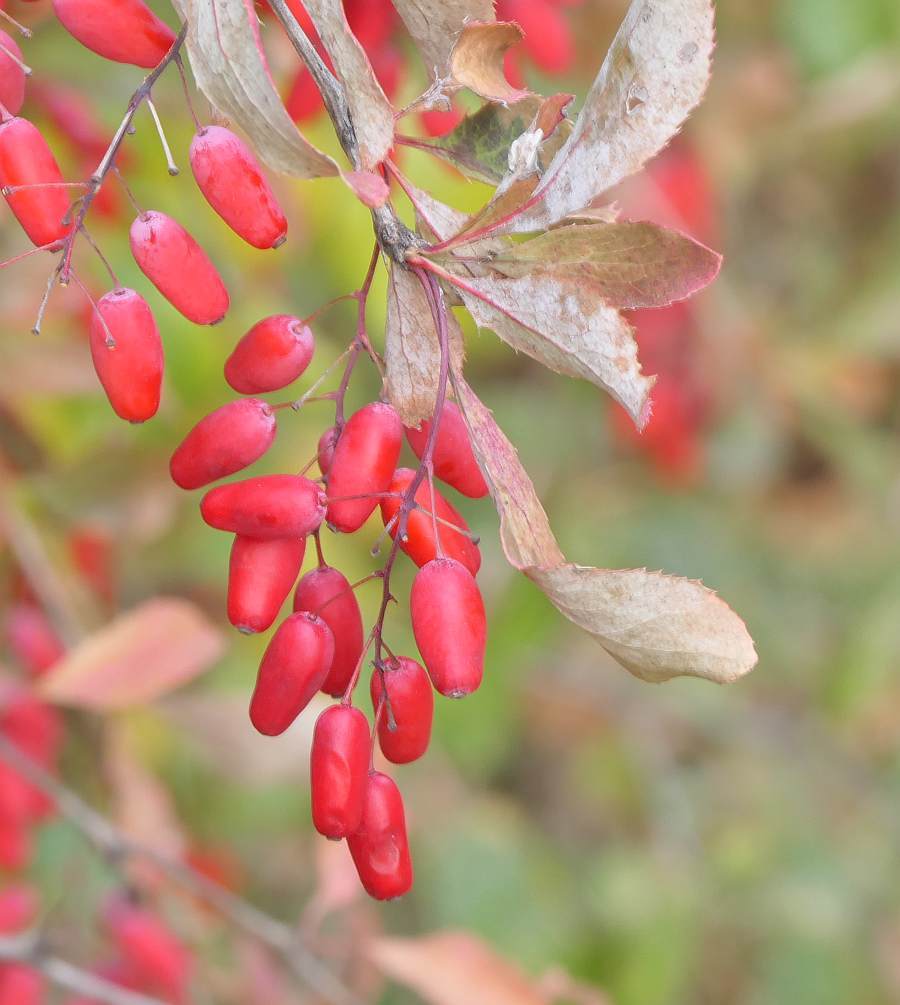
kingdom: Plantae
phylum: Tracheophyta
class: Magnoliopsida
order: Ranunculales
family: Berberidaceae
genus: Berberis
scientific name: Berberis vulgaris
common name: Barberry
